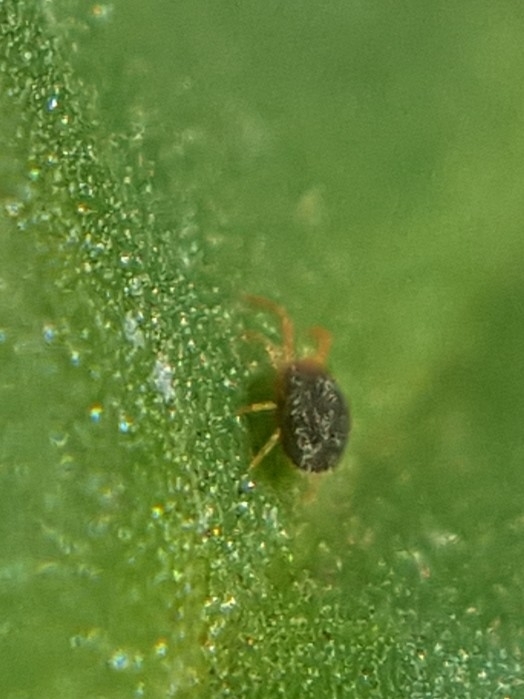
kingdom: Animalia
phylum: Arthropoda
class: Arachnida
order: Trombidiformes
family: Tetranychidae
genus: Bryobia
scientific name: Bryobia praetiosa
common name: Clover mite
